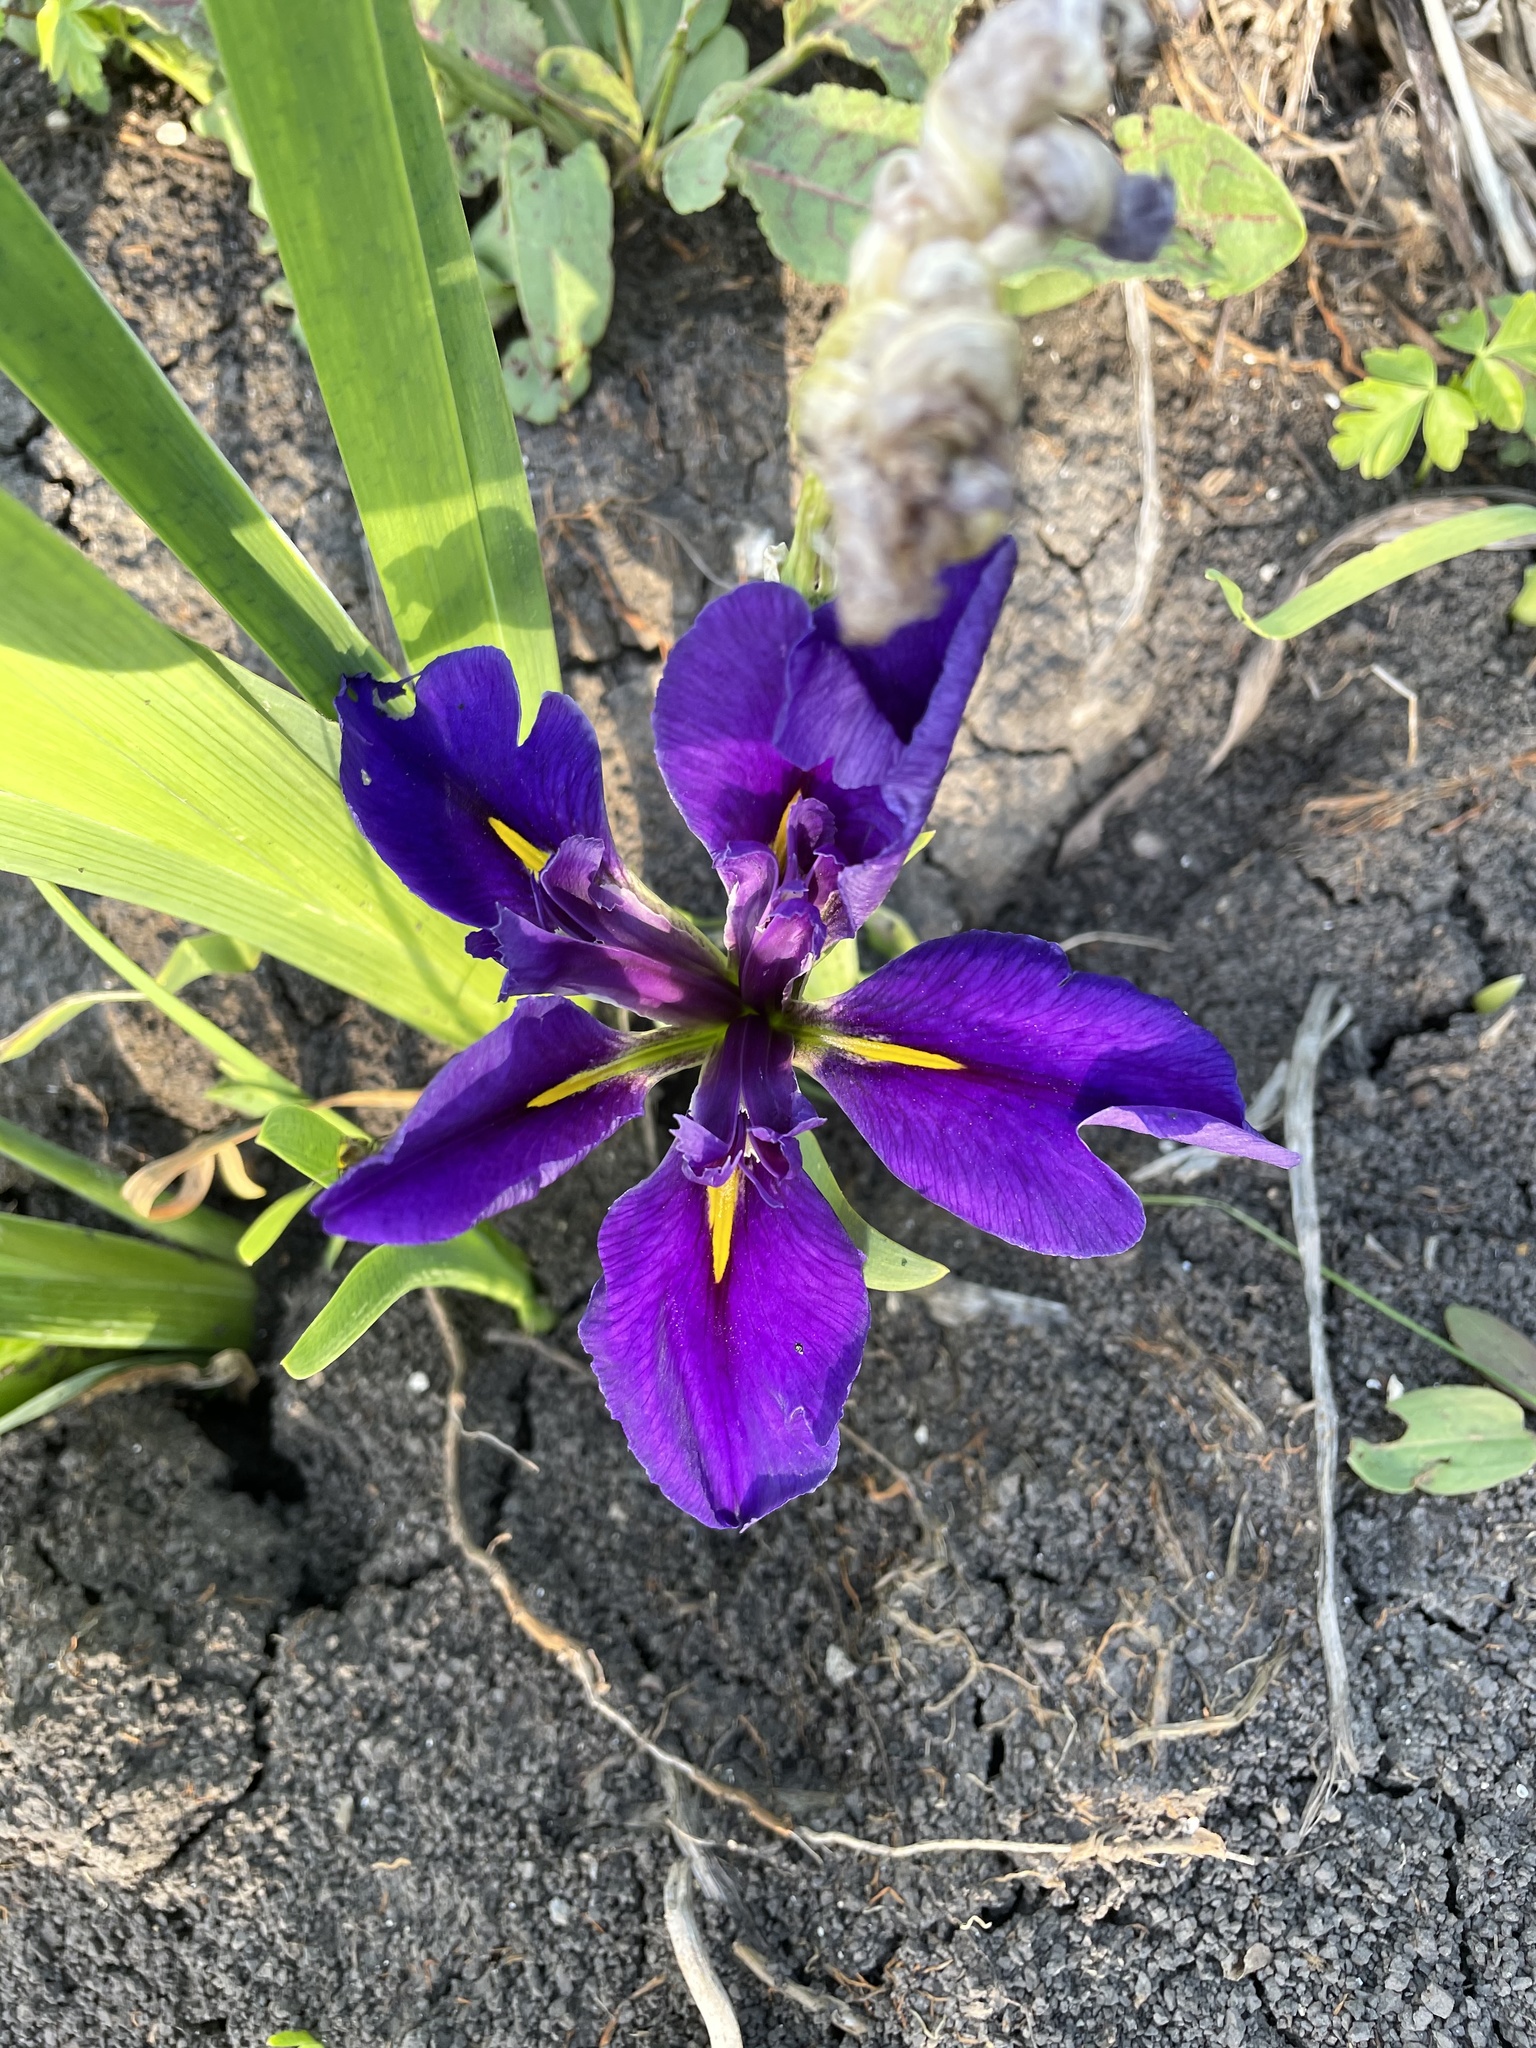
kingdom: Plantae
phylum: Tracheophyta
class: Liliopsida
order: Asparagales
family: Iridaceae
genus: Iris
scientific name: Iris brevicaulis
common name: Zigzag iris
